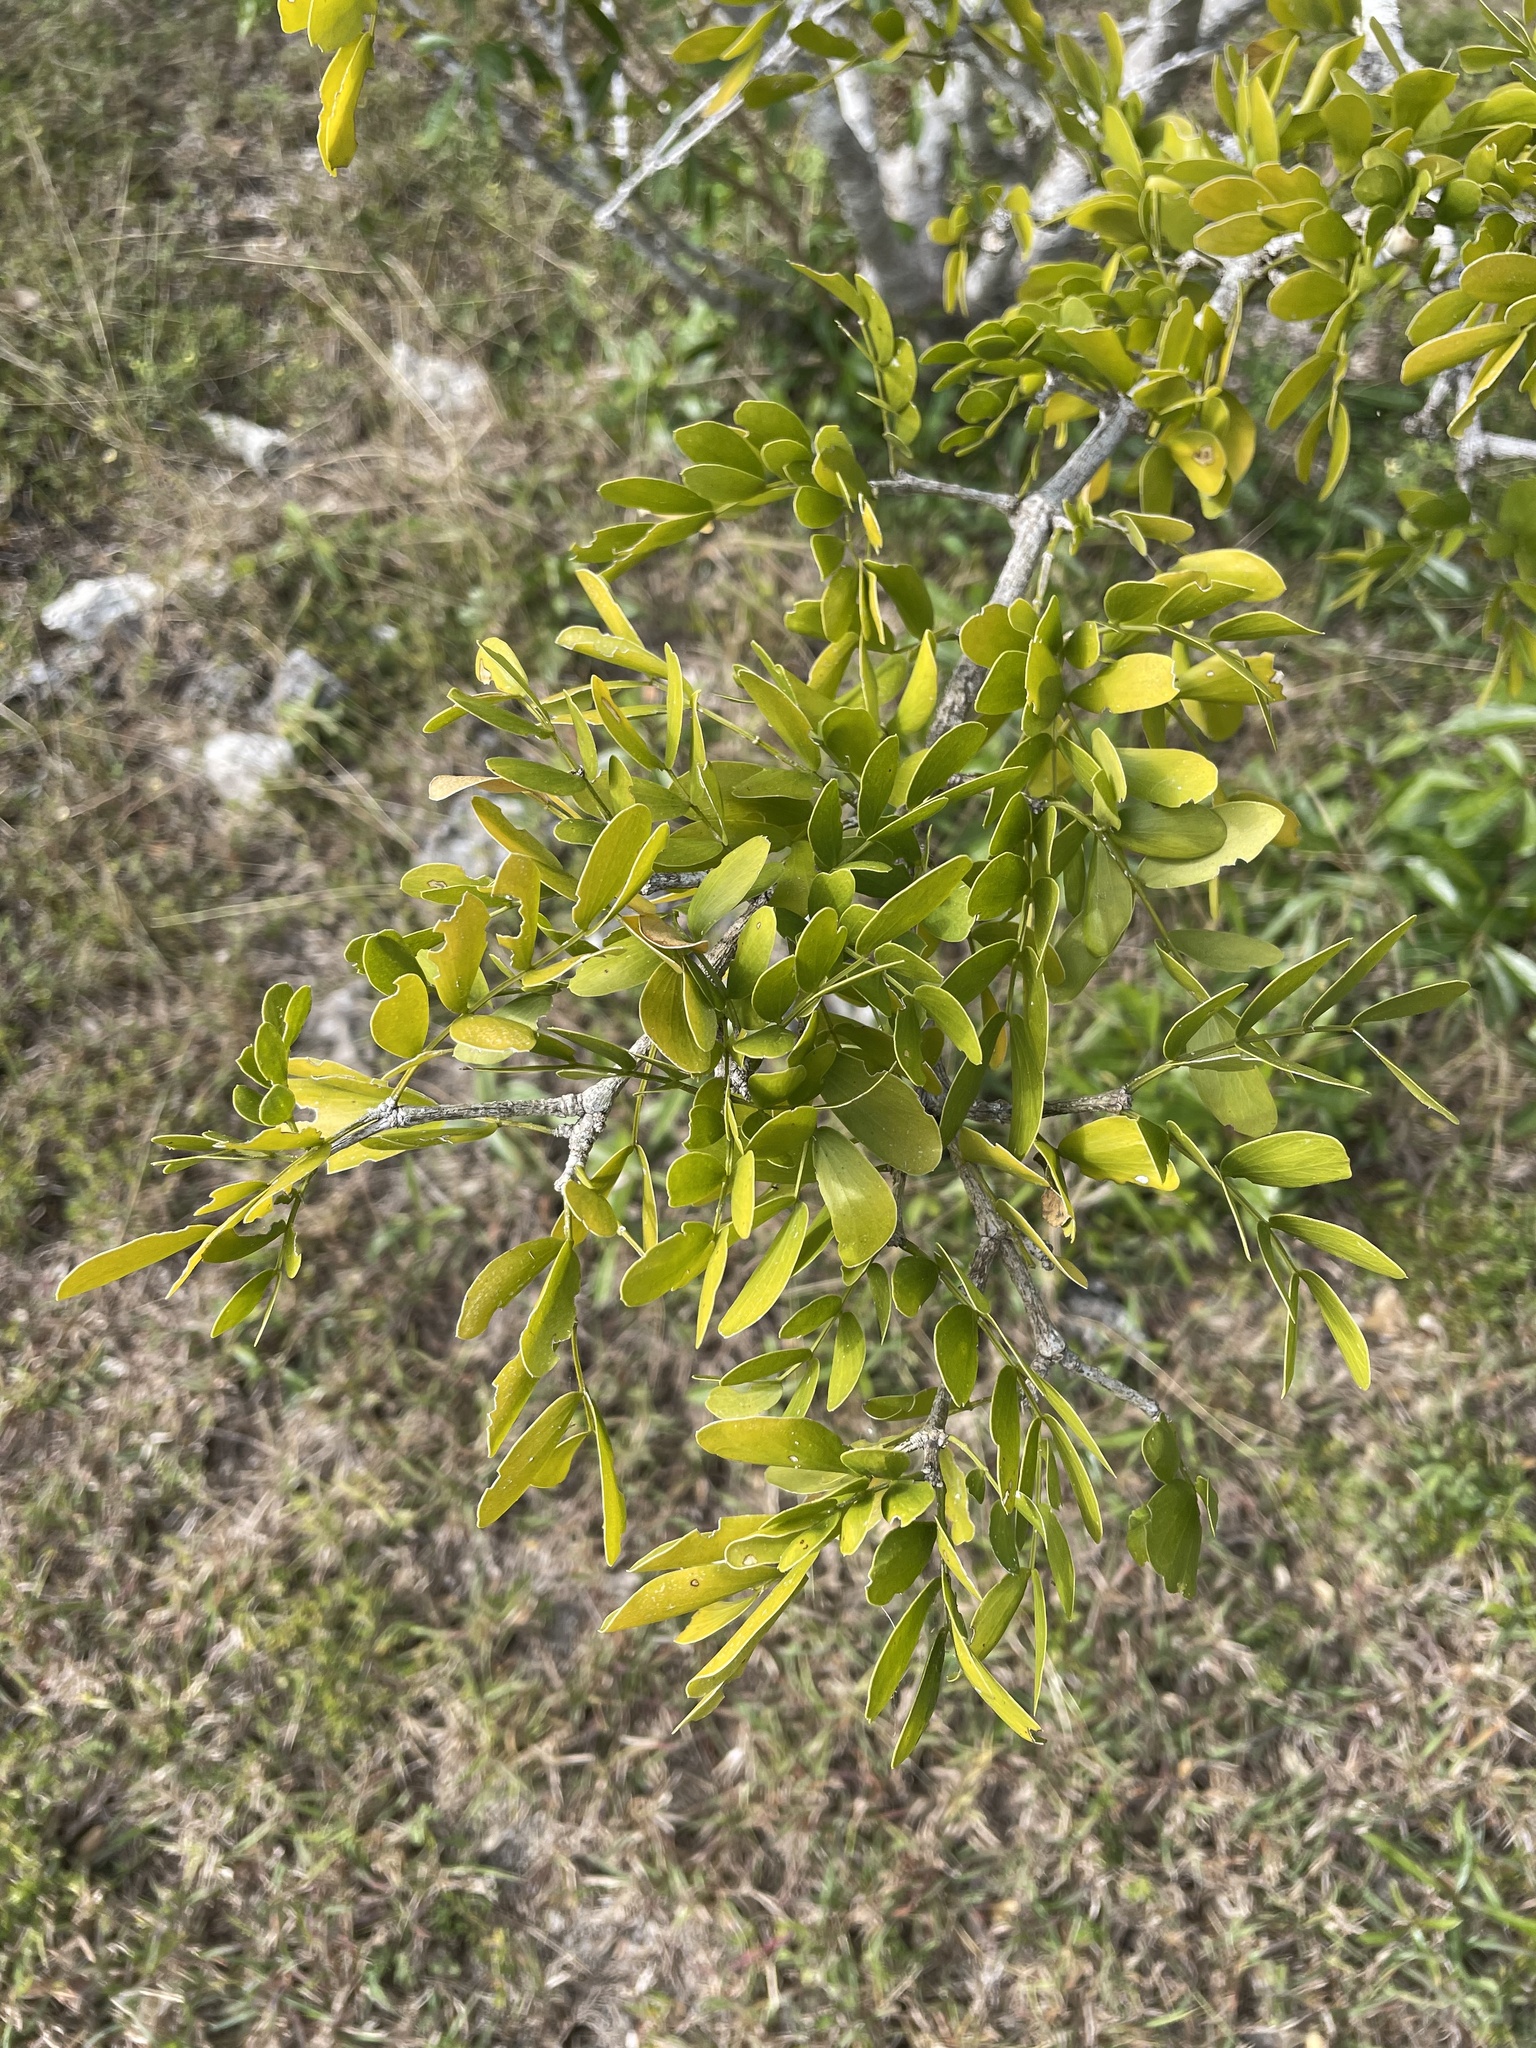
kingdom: Plantae
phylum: Tracheophyta
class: Magnoliopsida
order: Zygophyllales
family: Zygophyllaceae
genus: Guaiacum
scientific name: Guaiacum sanctum
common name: Holywood
